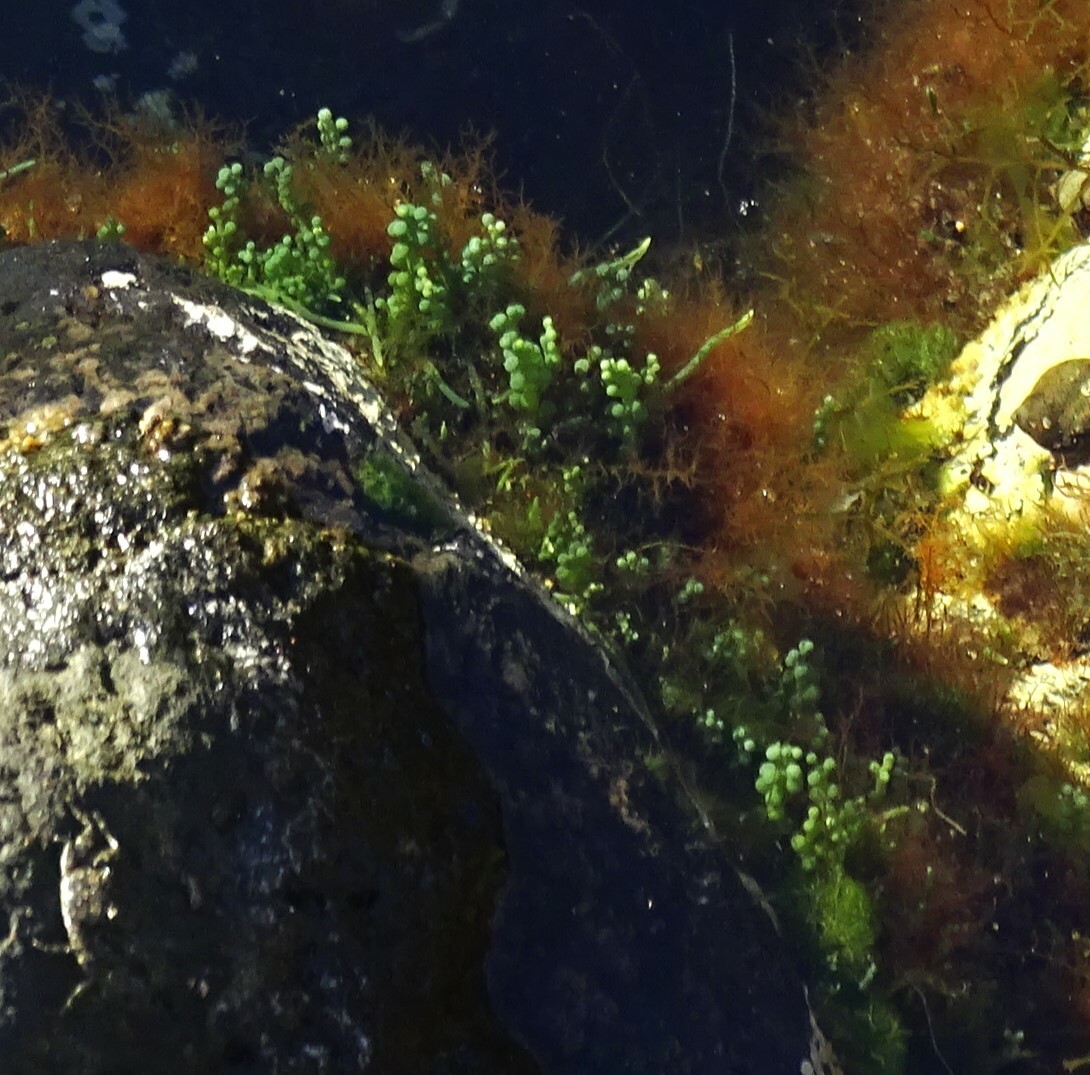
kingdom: Plantae
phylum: Chlorophyta
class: Ulvophyceae
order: Bryopsidales
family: Caulerpaceae
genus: Caulerpa
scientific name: Caulerpa racemosa
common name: Green grape algae
